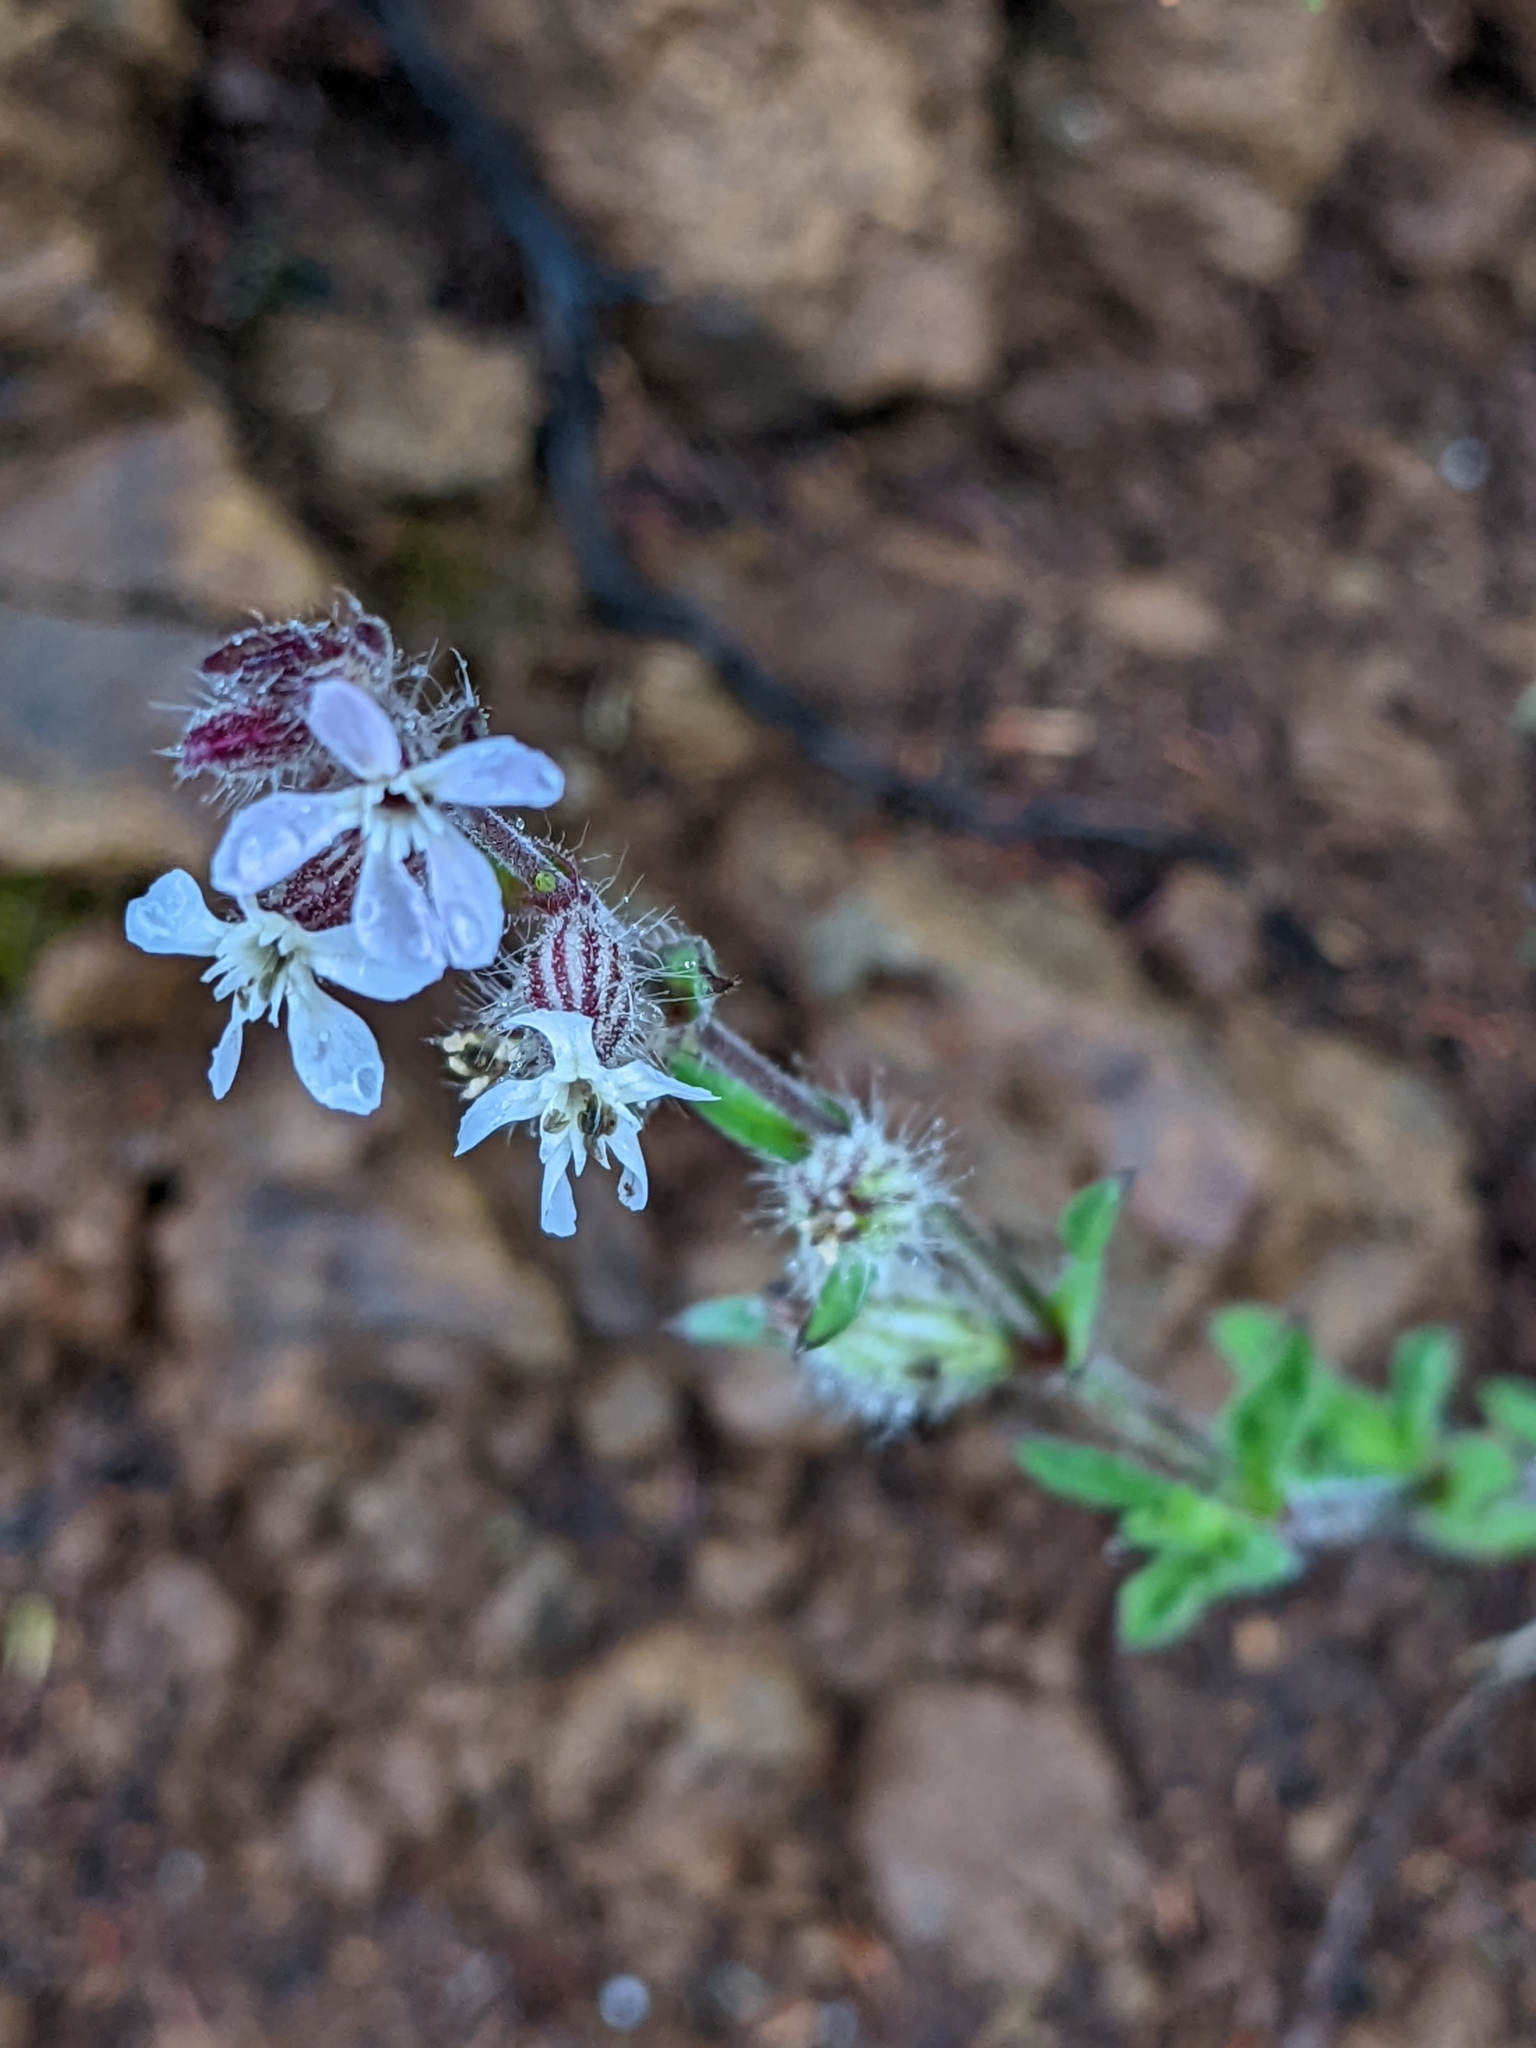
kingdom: Plantae
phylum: Tracheophyta
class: Magnoliopsida
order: Caryophyllales
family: Caryophyllaceae
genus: Silene
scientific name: Silene gallica
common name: Small-flowered catchfly
